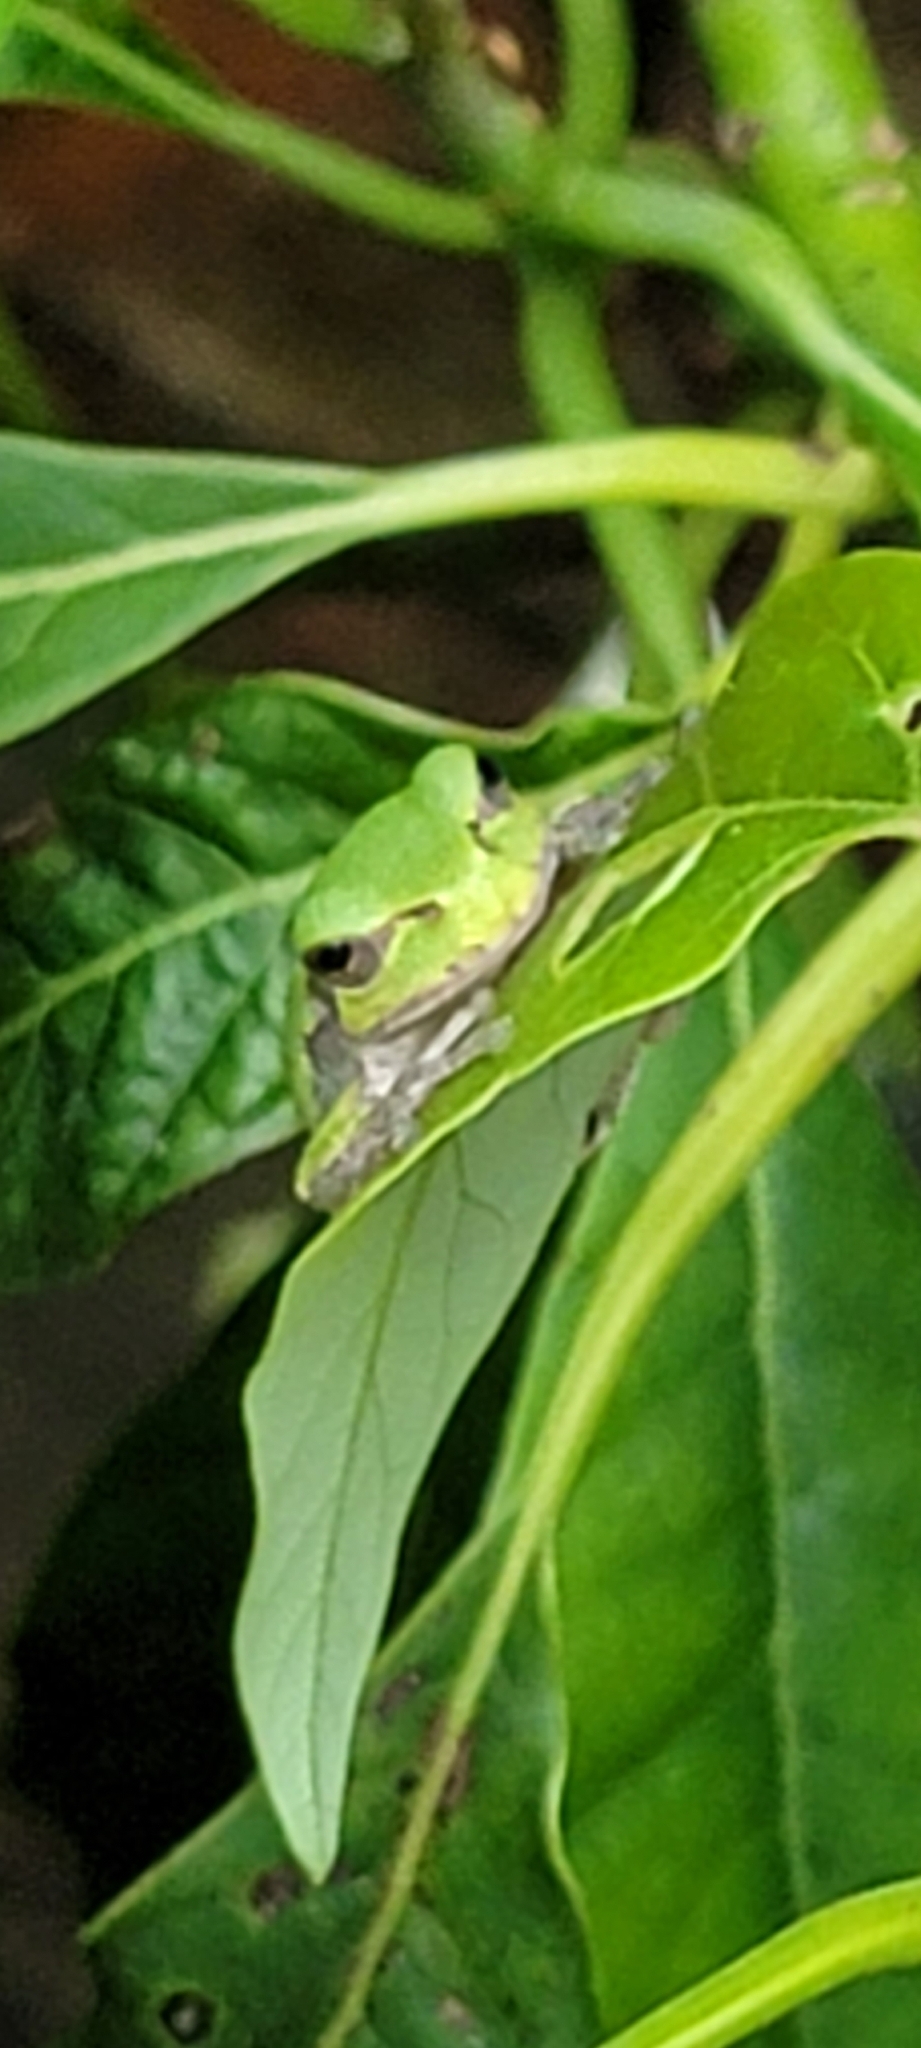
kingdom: Animalia
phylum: Chordata
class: Amphibia
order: Anura
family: Hylidae
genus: Hyla
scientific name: Hyla
